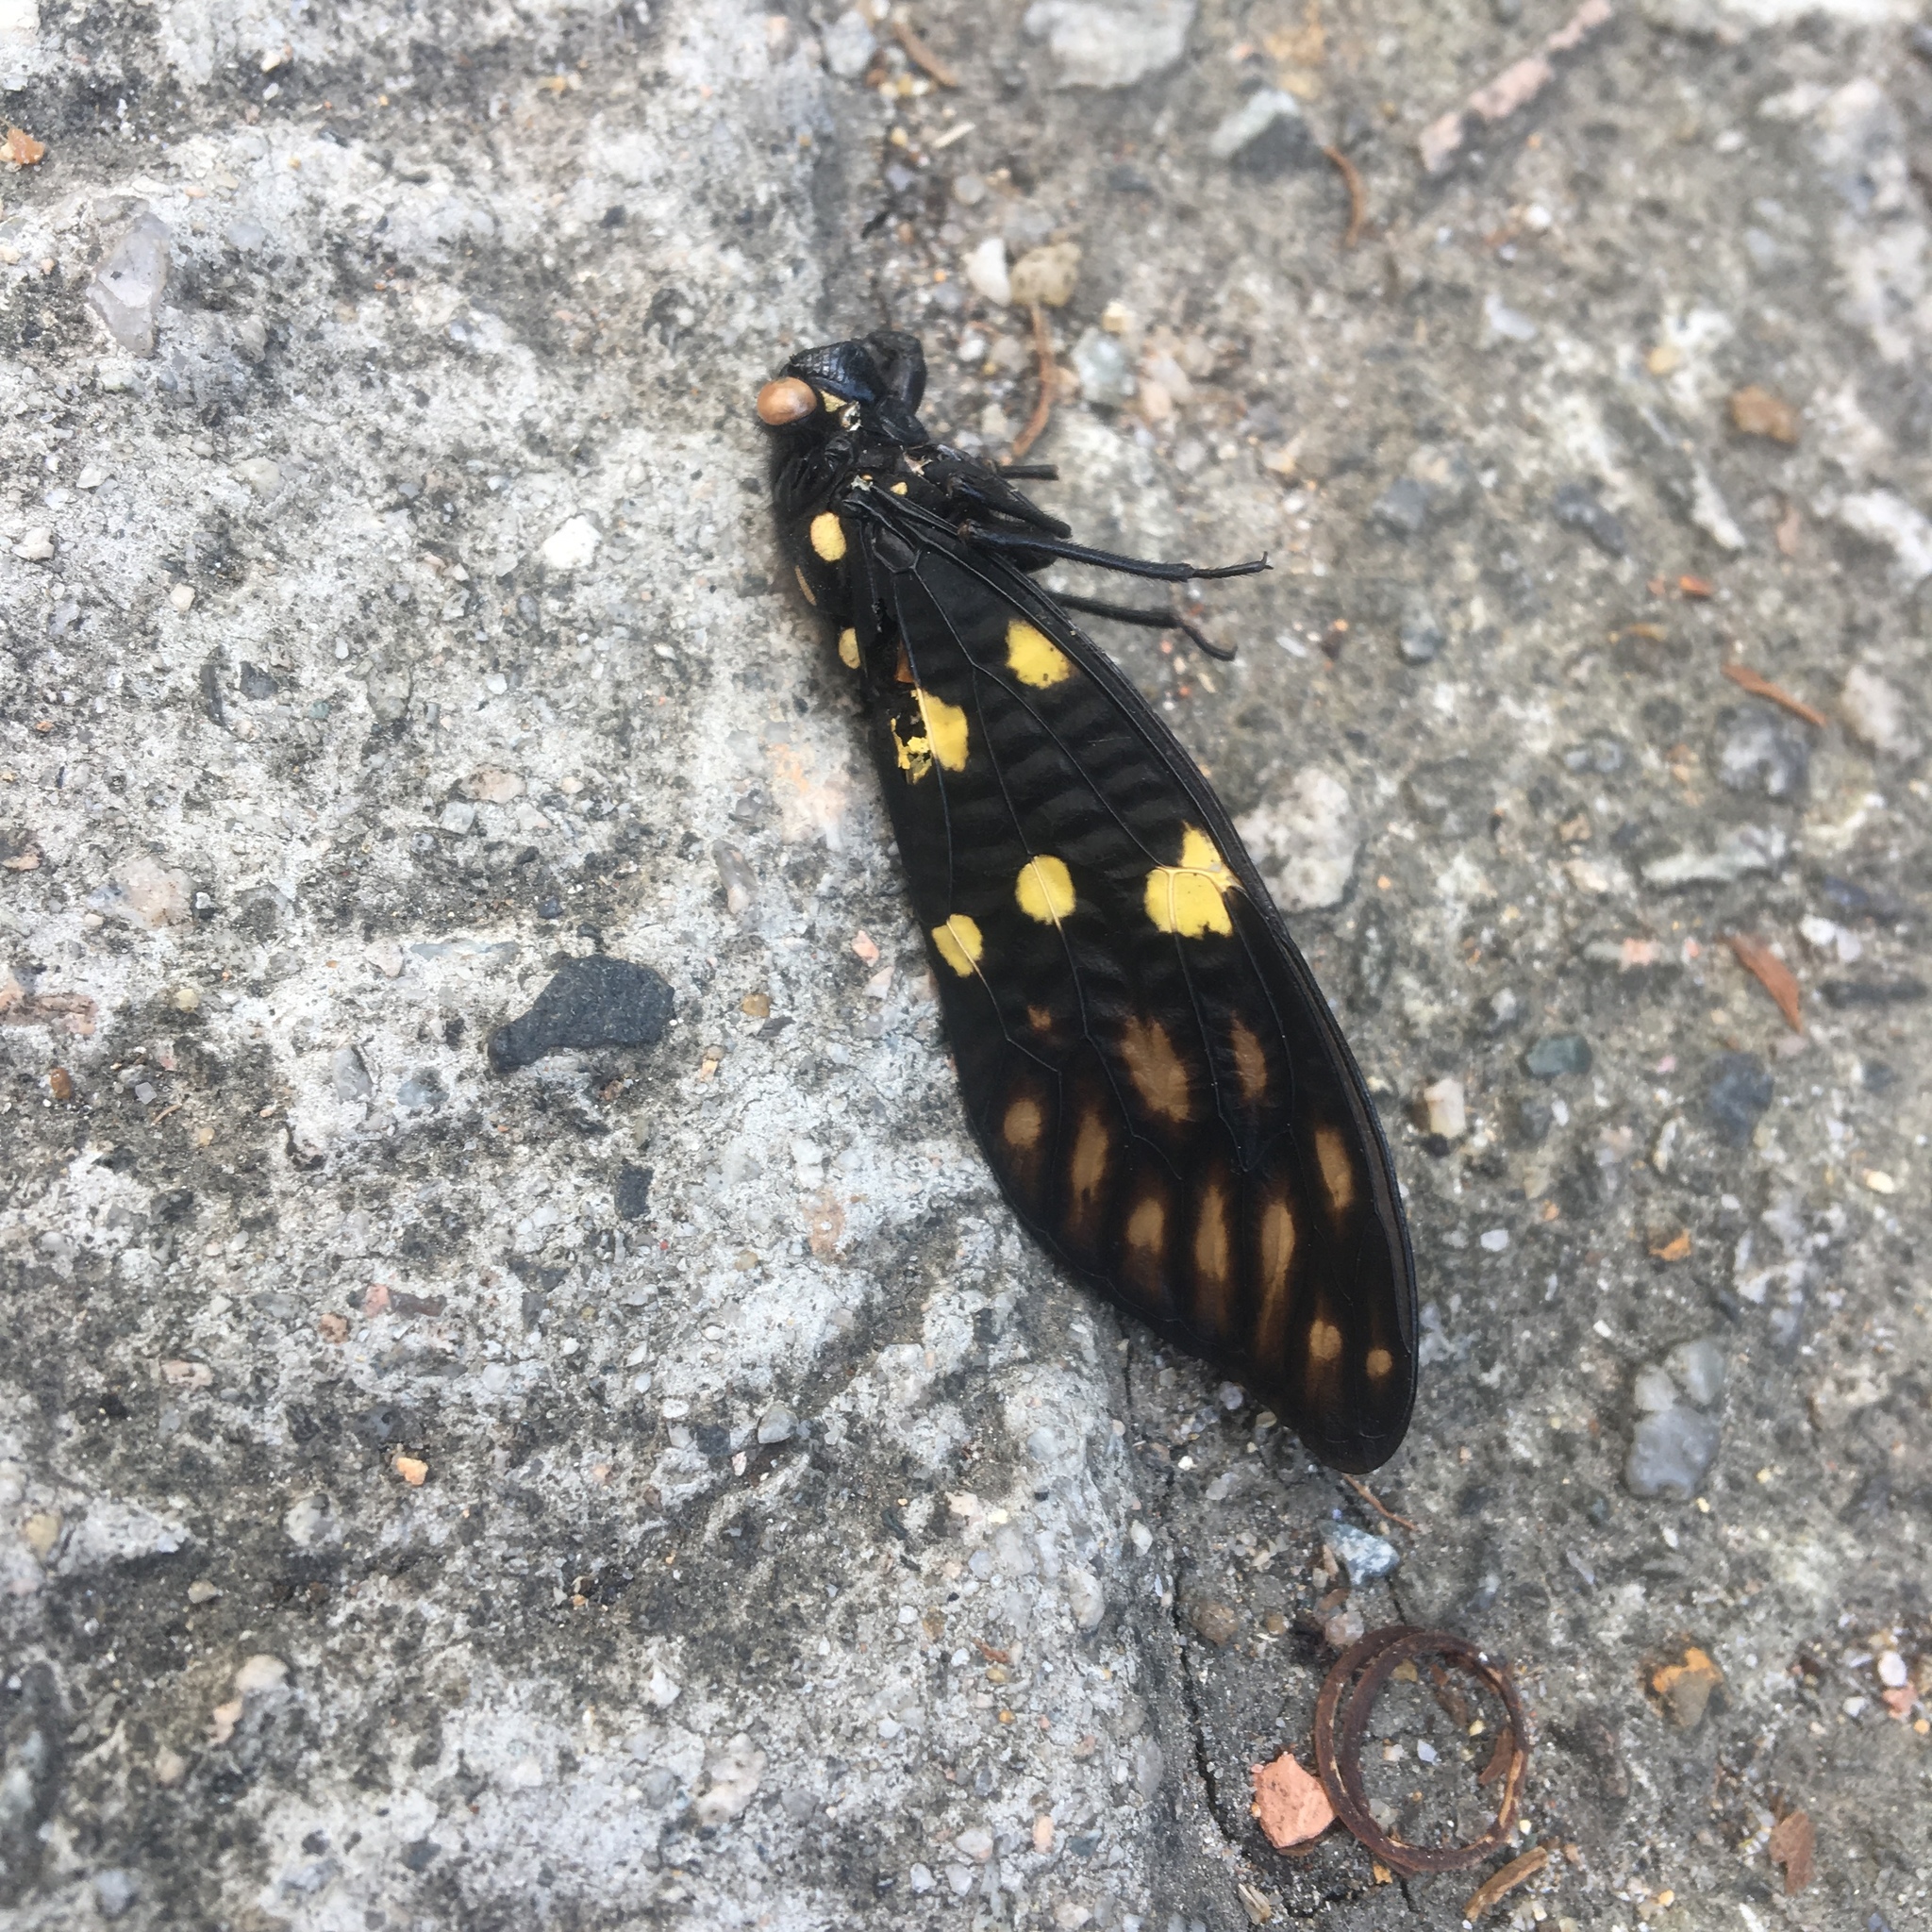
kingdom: Animalia
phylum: Arthropoda
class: Insecta
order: Hemiptera
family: Cicadidae
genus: Gaeana
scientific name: Gaeana maculata
